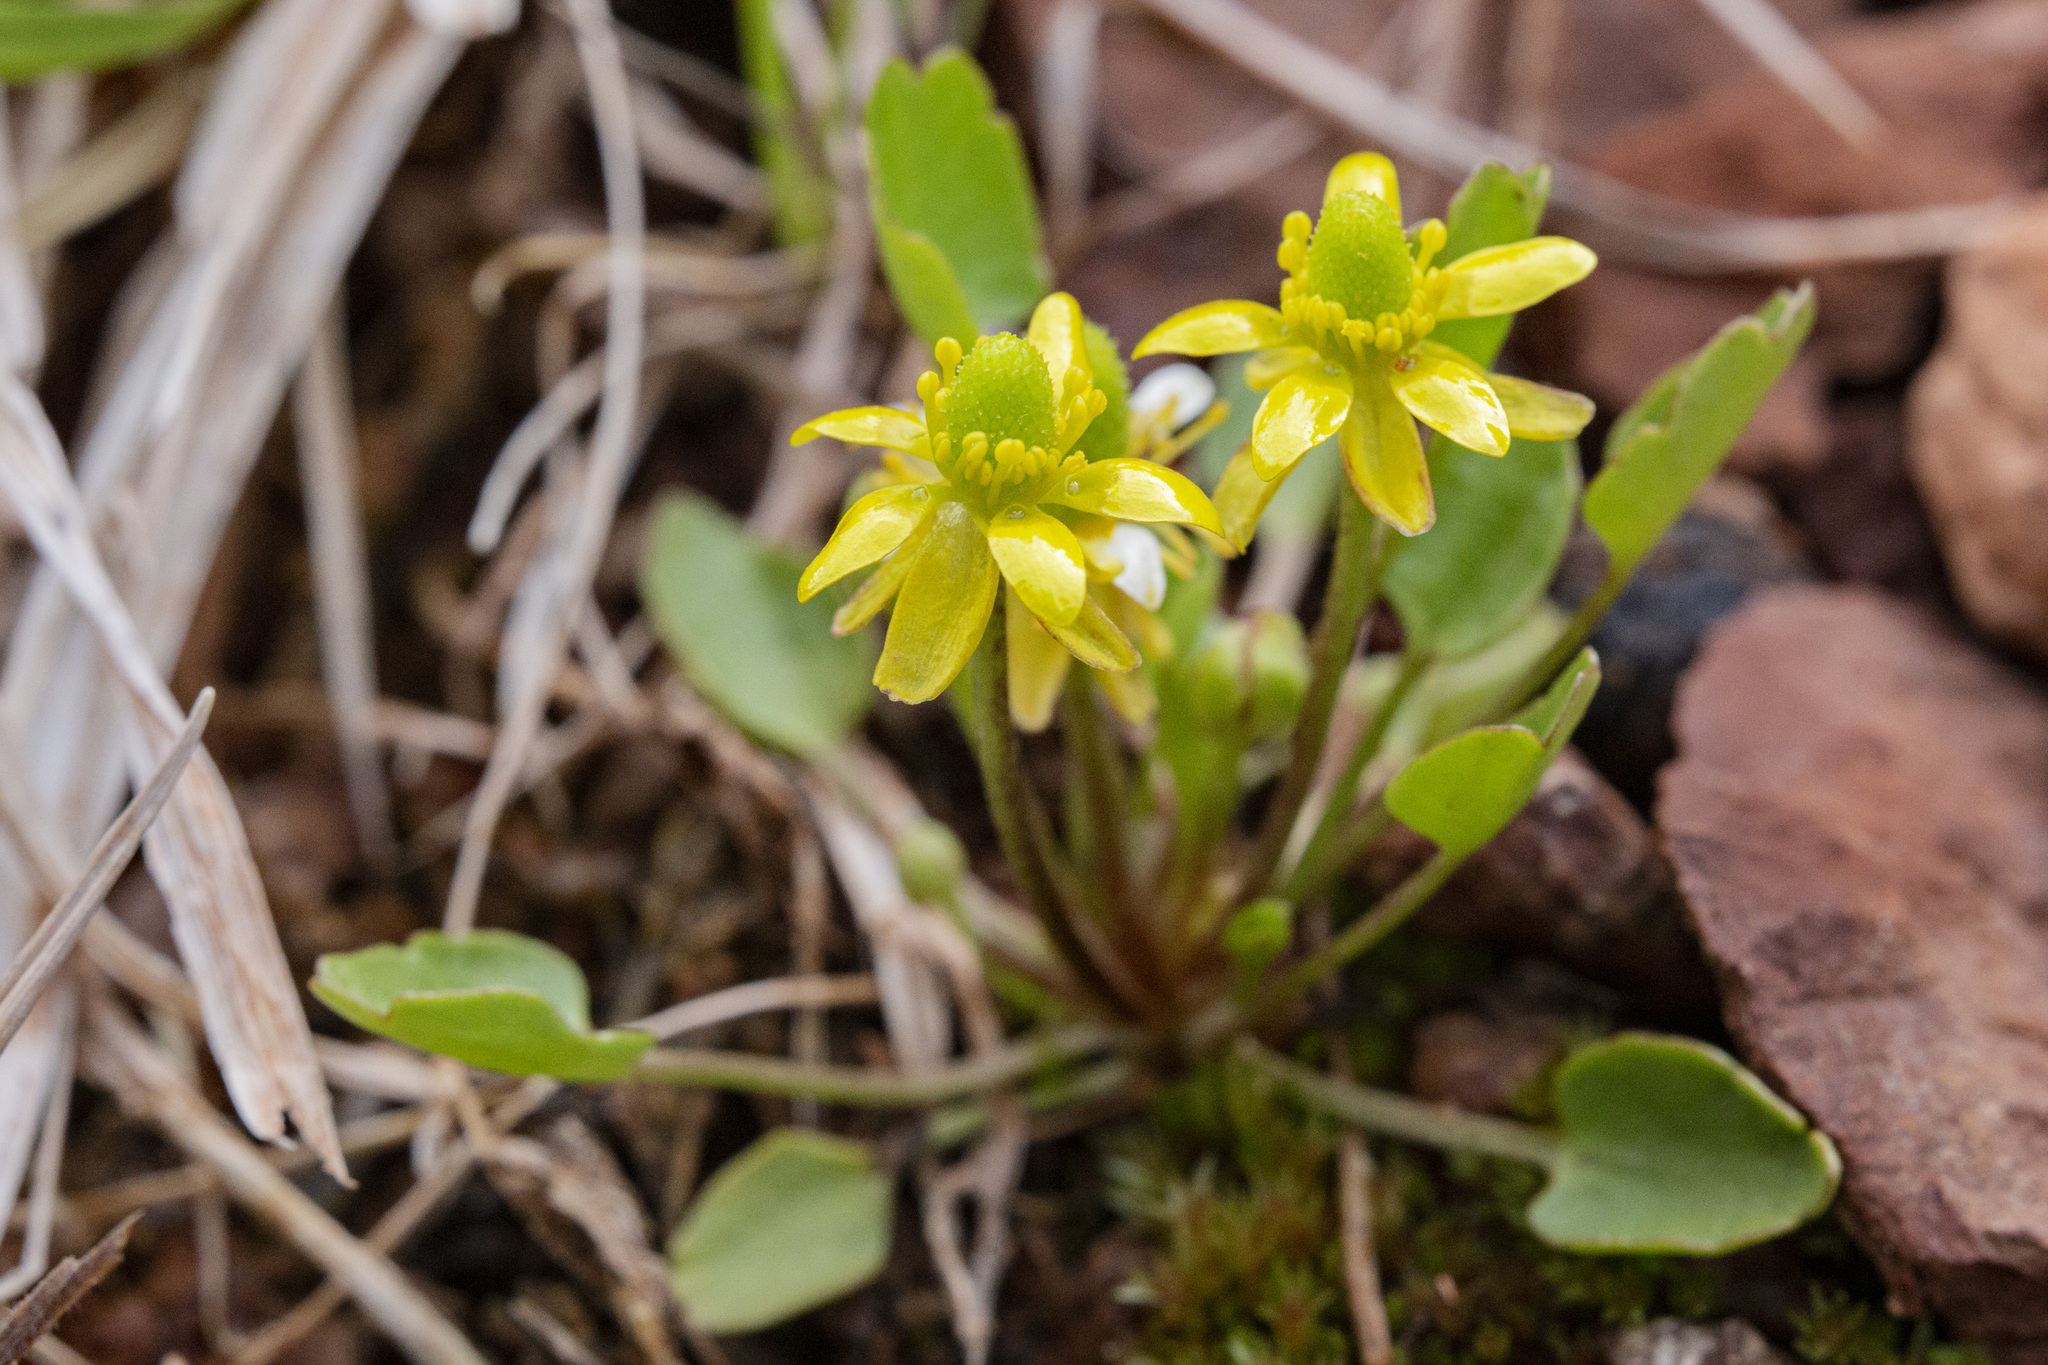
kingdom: Plantae
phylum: Tracheophyta
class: Magnoliopsida
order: Ranunculales
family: Ranunculaceae
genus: Halerpestes
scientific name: Halerpestes cymbalaria
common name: Seaside crowfoot
